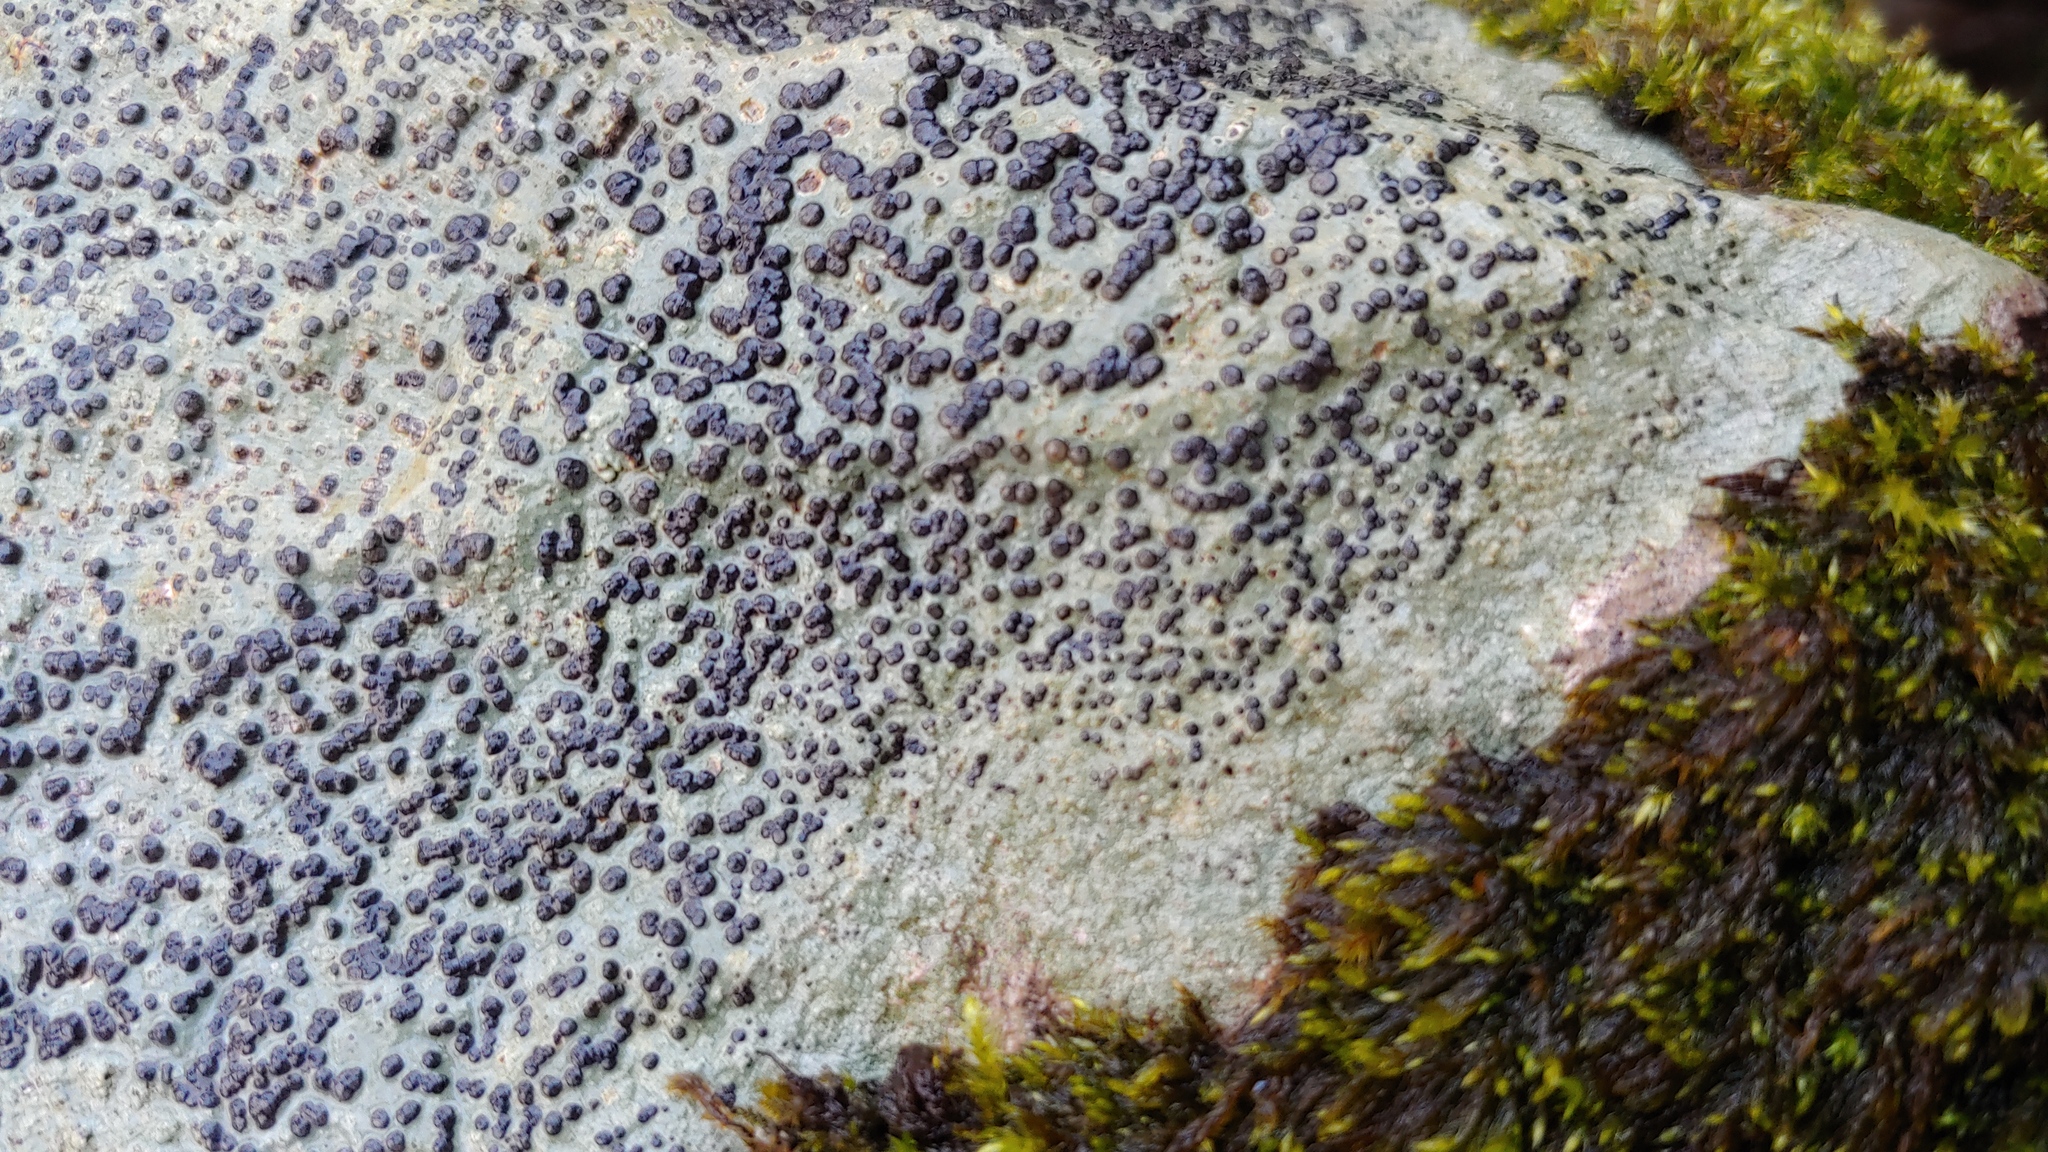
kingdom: Fungi
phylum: Ascomycota
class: Lecanoromycetes
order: Lecideales
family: Lecideaceae
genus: Porpidia
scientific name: Porpidia albocaerulescens
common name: Smokey-eyed boulder lichen
